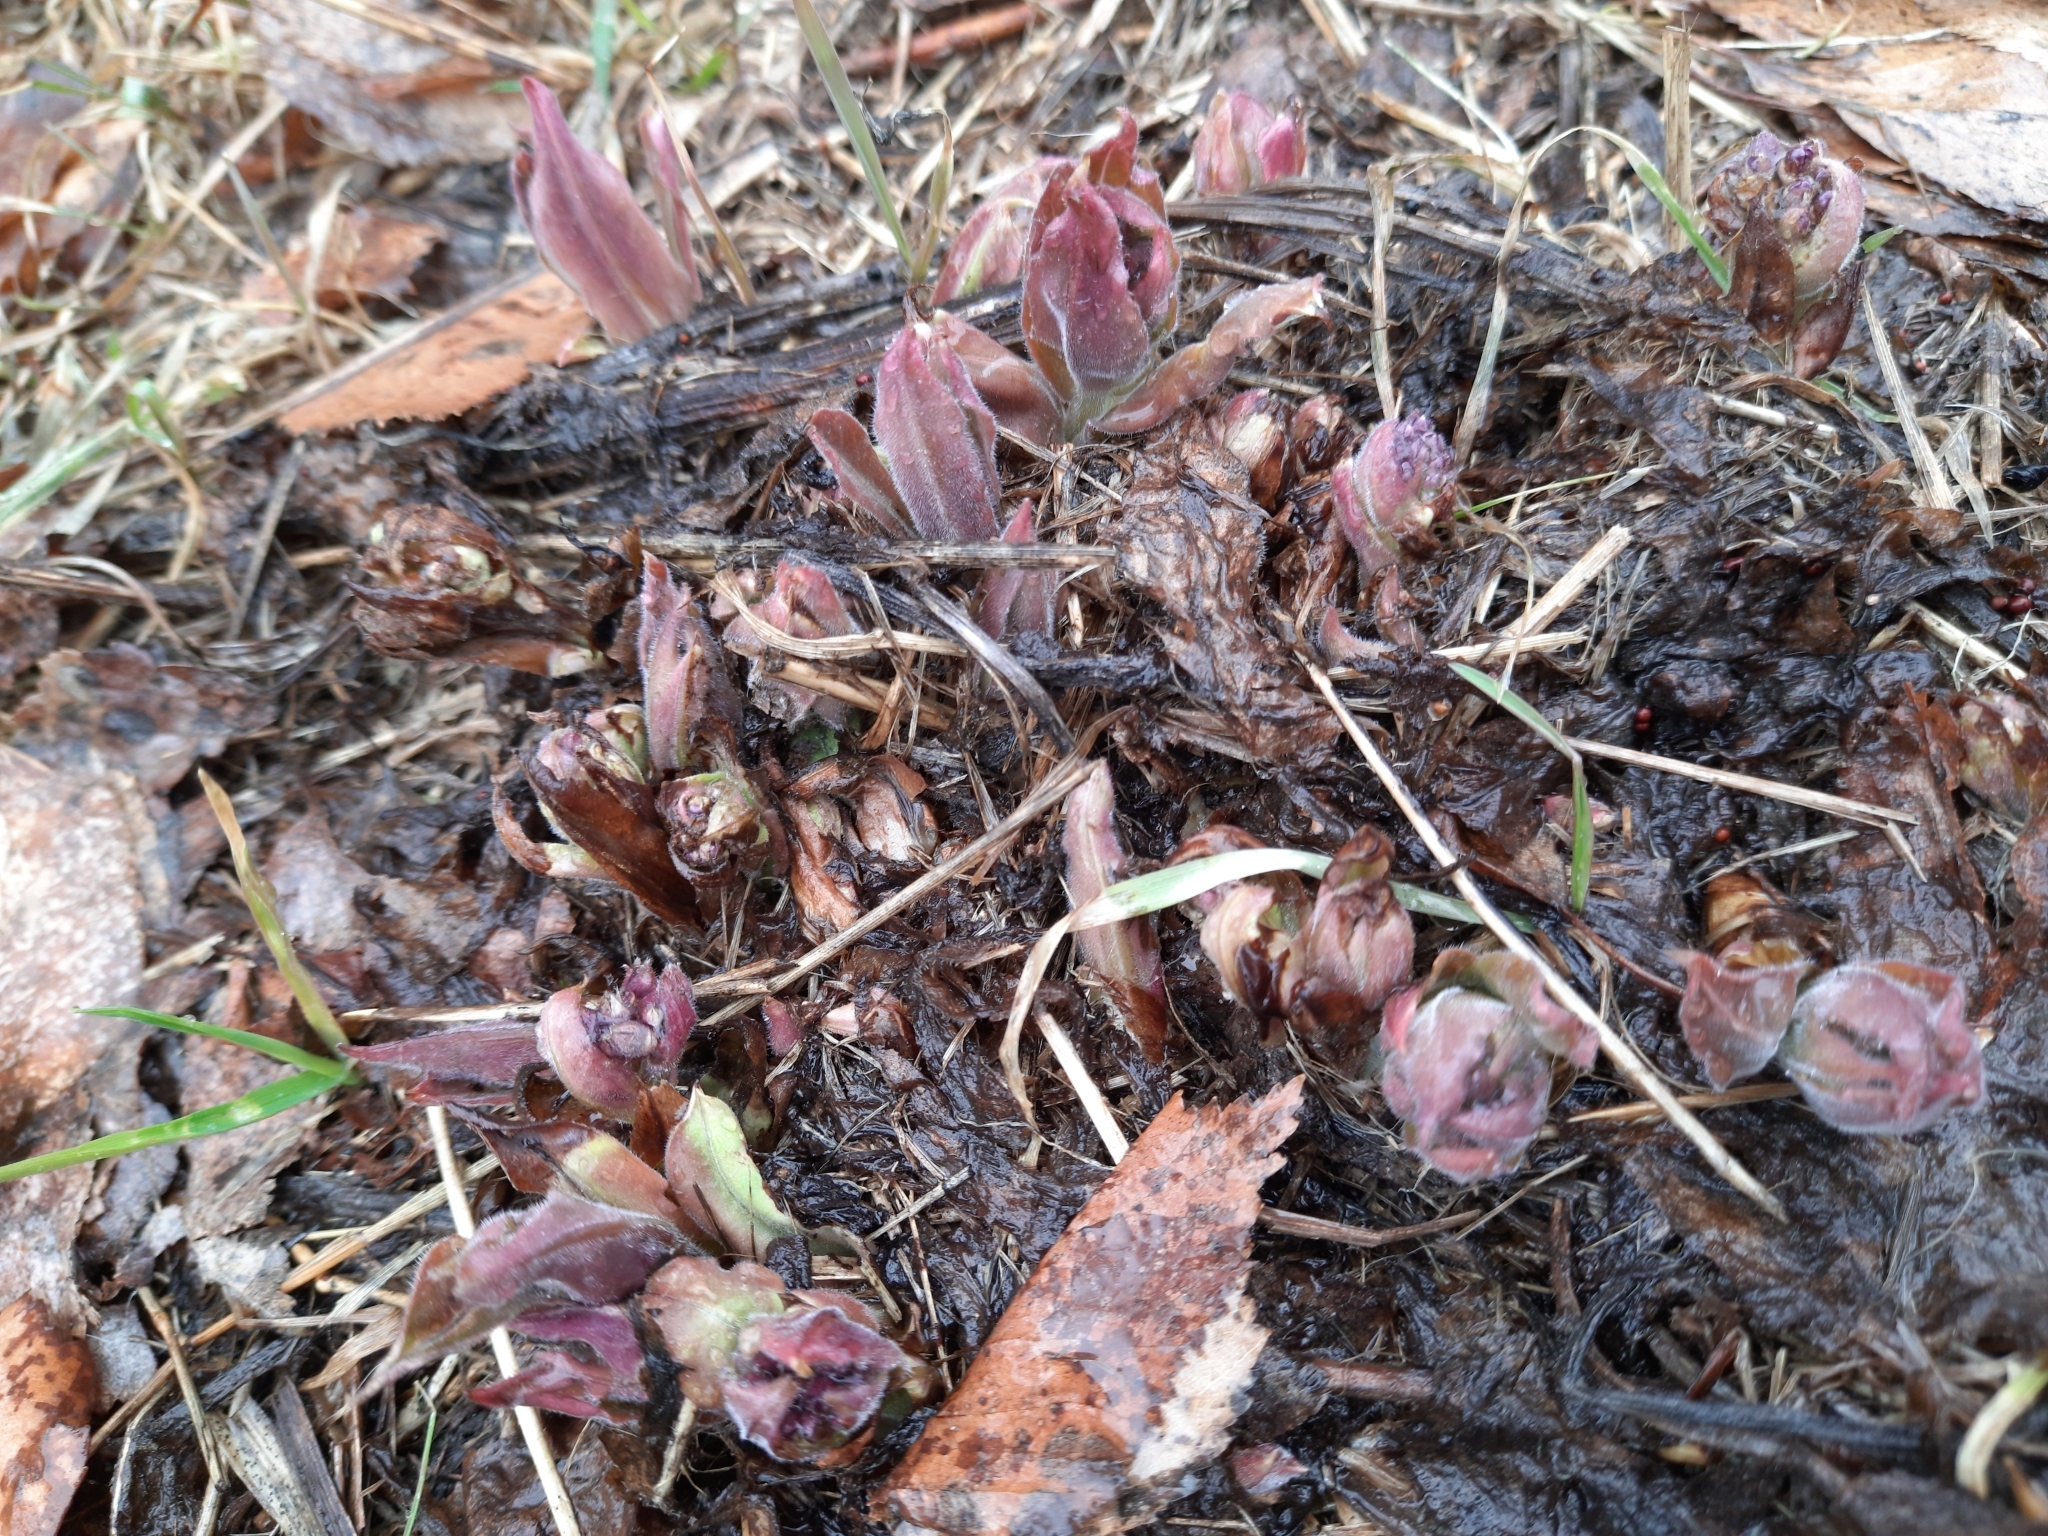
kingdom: Plantae
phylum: Tracheophyta
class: Magnoliopsida
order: Boraginales
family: Boraginaceae
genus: Pulmonaria
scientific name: Pulmonaria mollis
